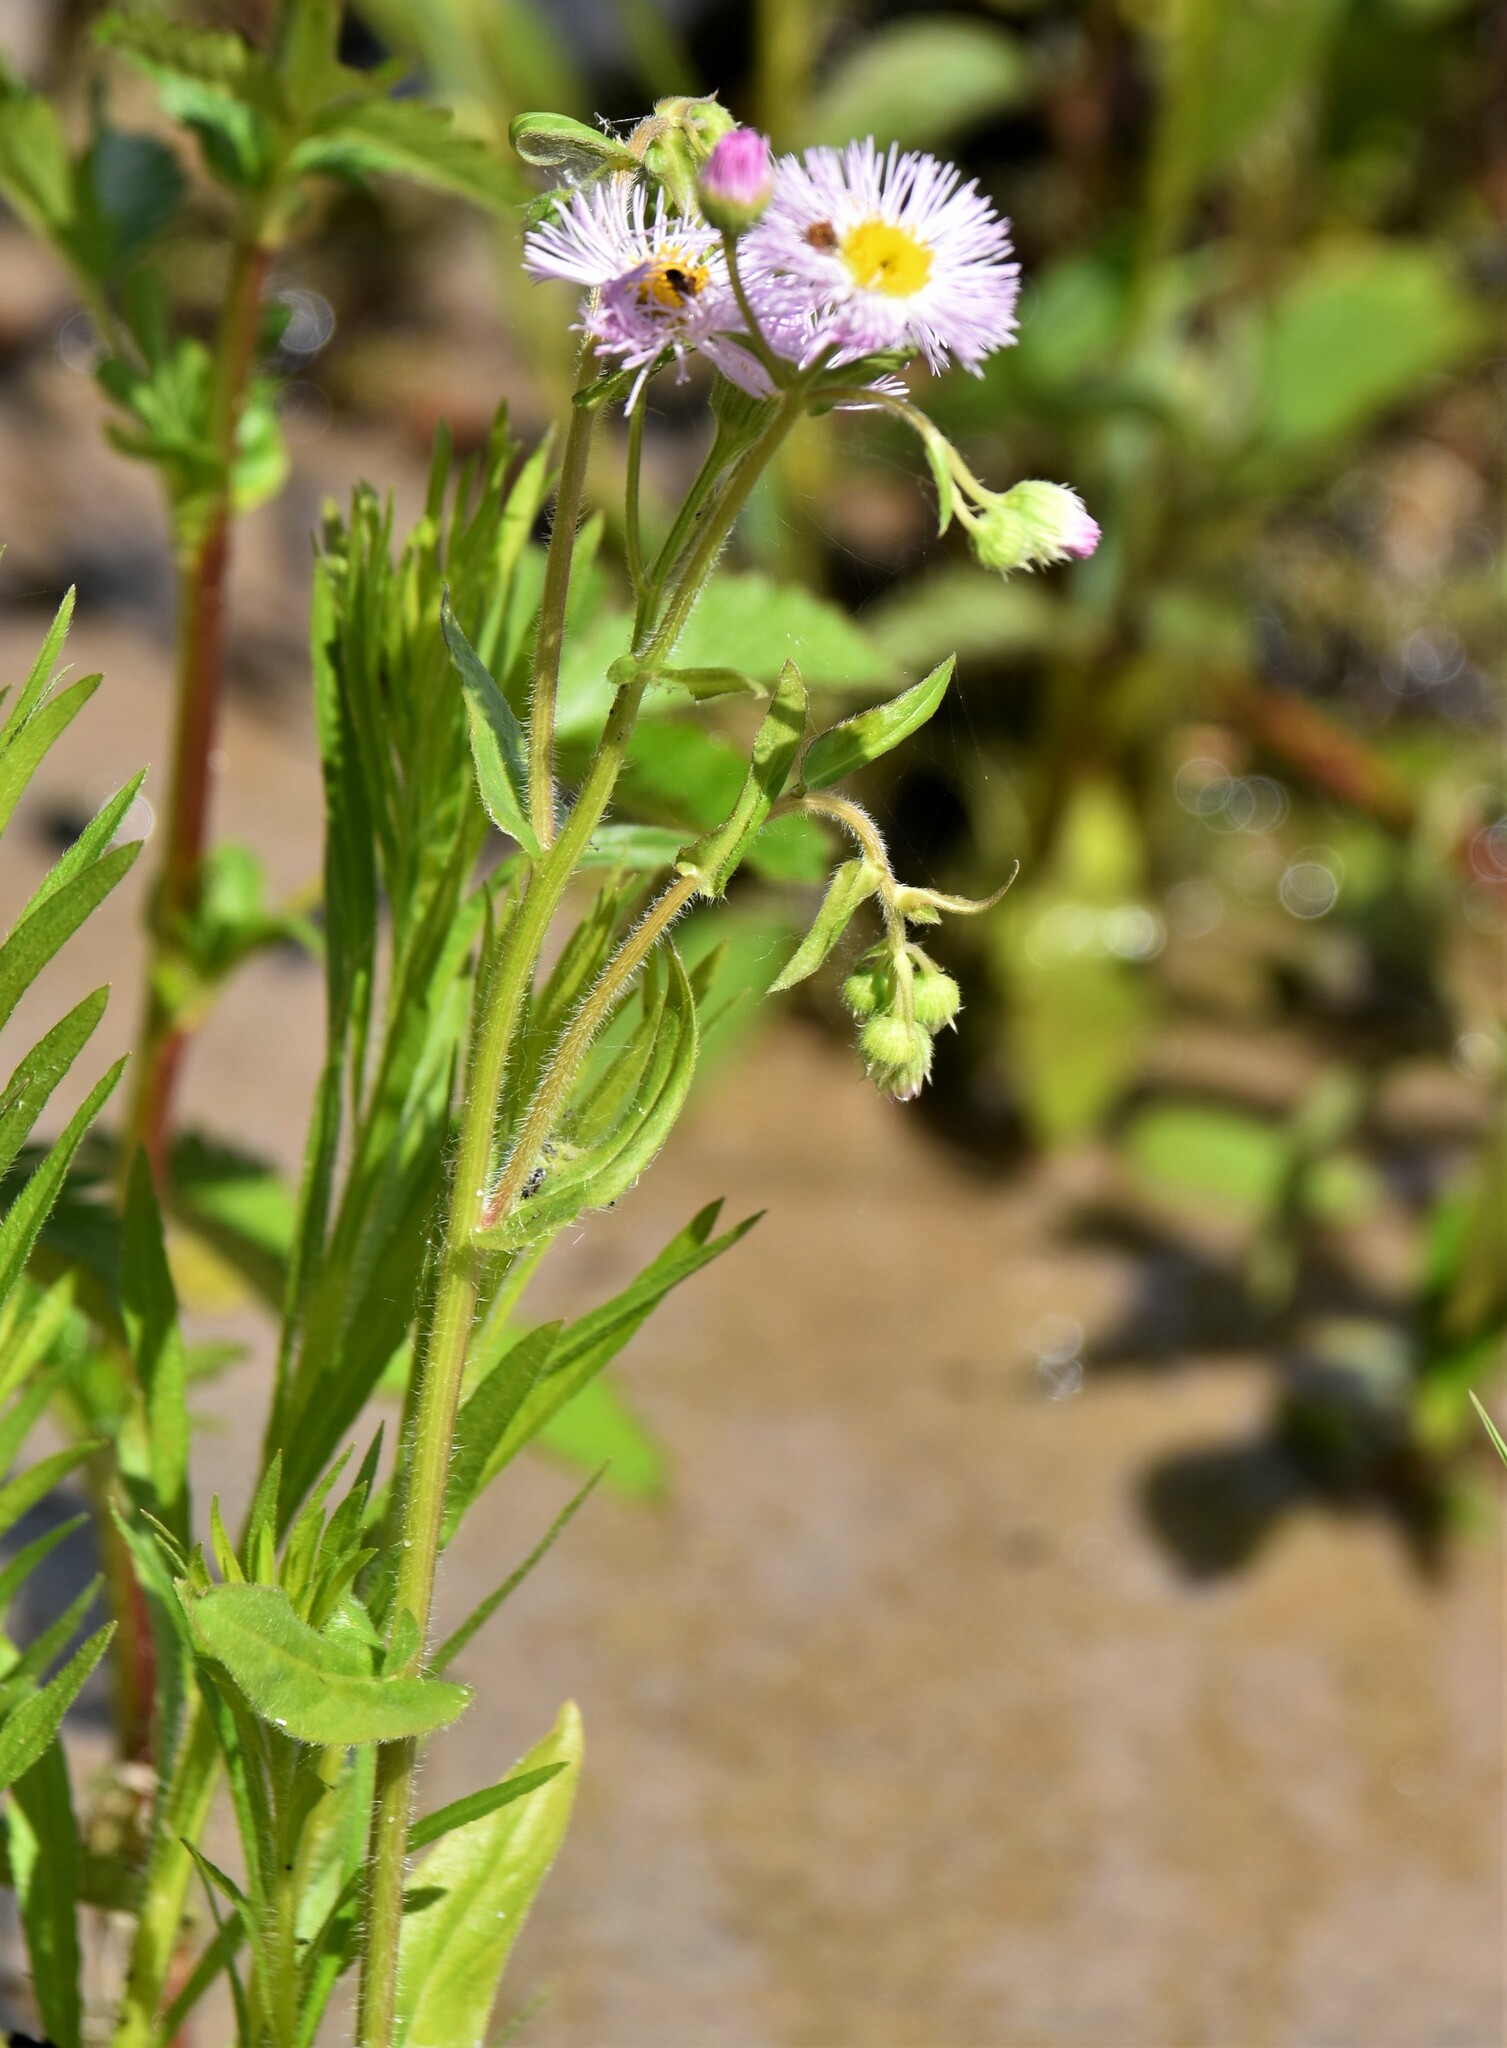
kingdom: Plantae
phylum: Tracheophyta
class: Magnoliopsida
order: Asterales
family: Asteraceae
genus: Erigeron
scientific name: Erigeron philadelphicus
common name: Robin's-plantain
